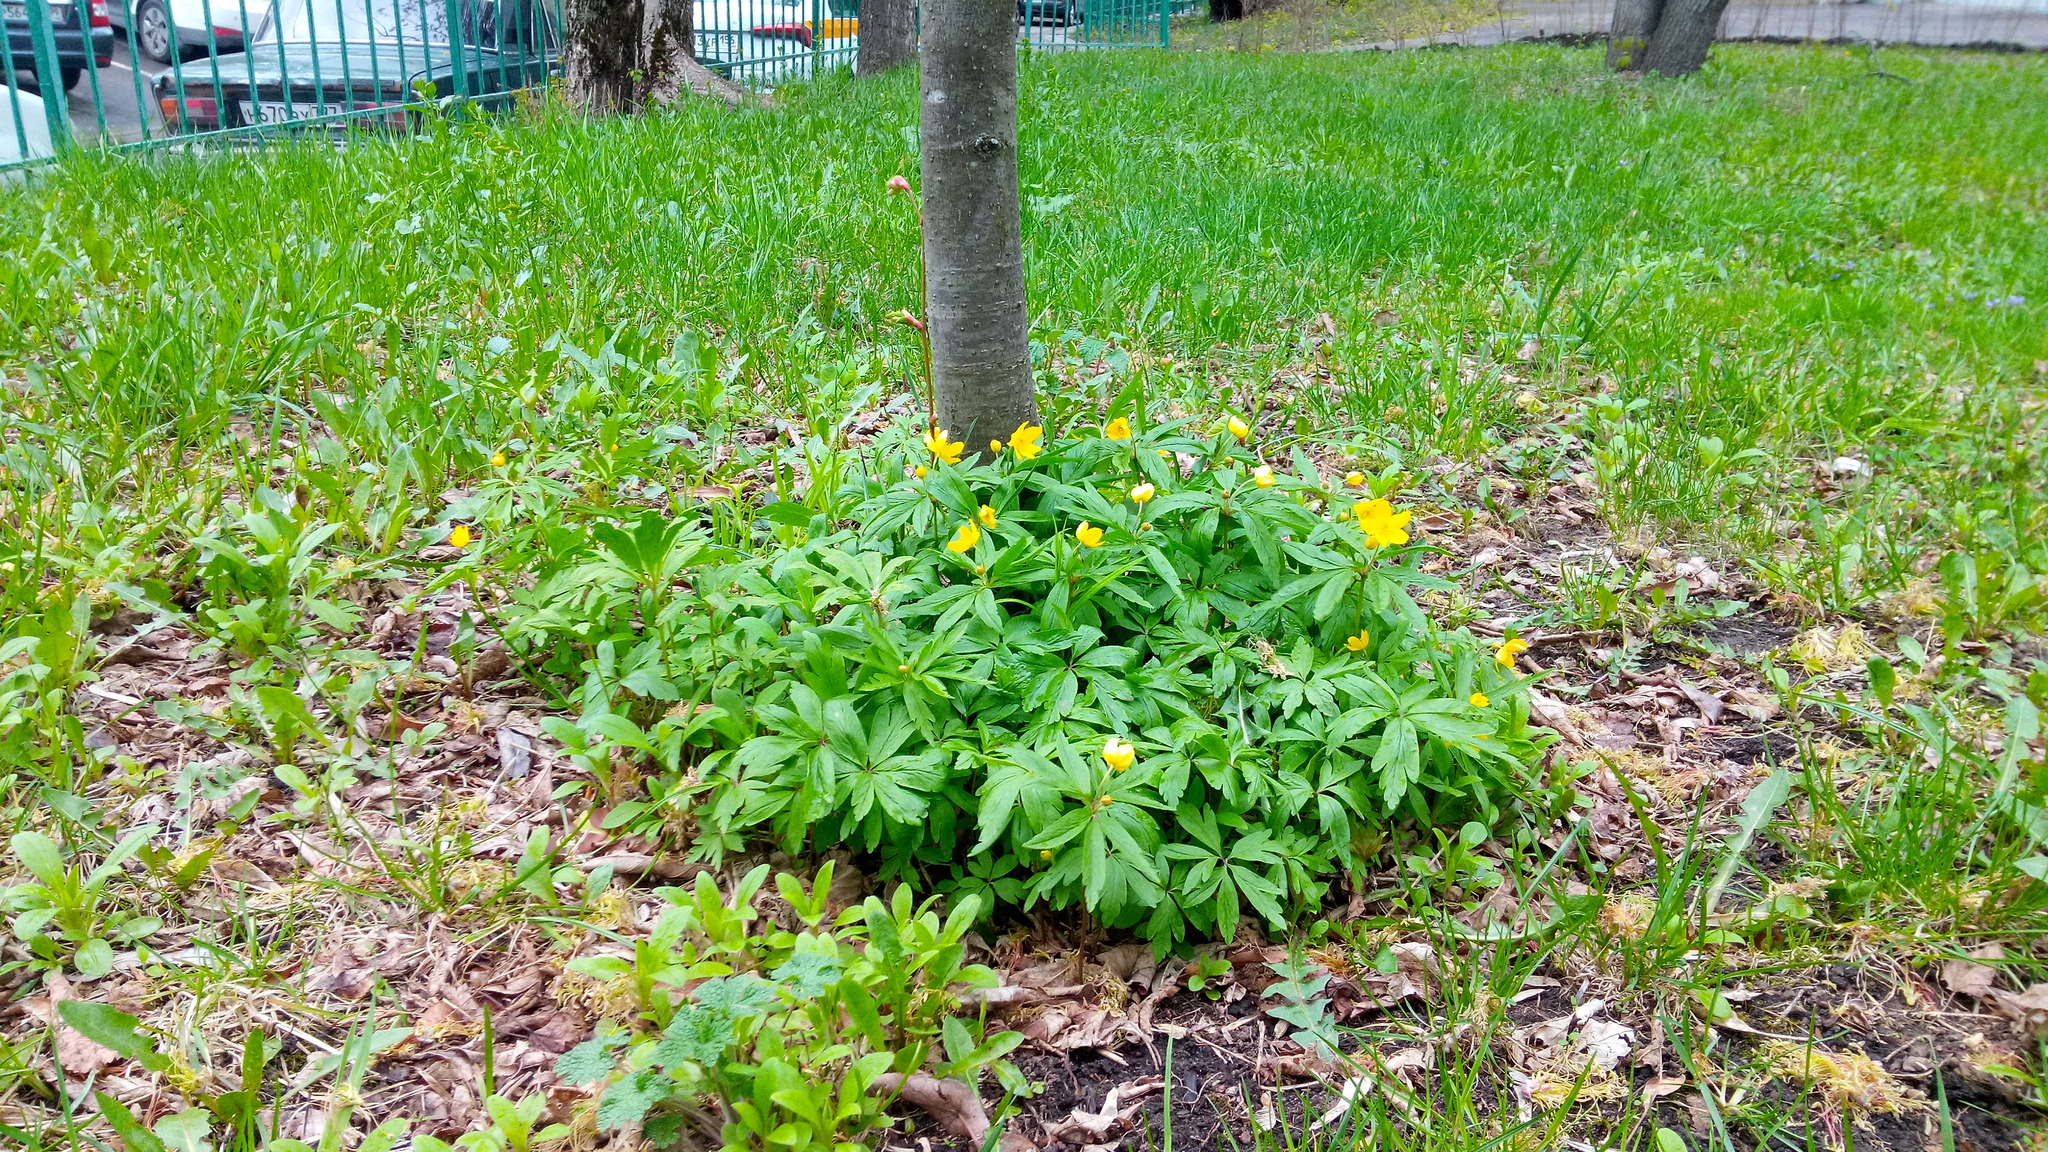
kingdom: Plantae
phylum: Tracheophyta
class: Magnoliopsida
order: Ranunculales
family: Ranunculaceae
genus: Anemone
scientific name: Anemone ranunculoides
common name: Yellow anemone
